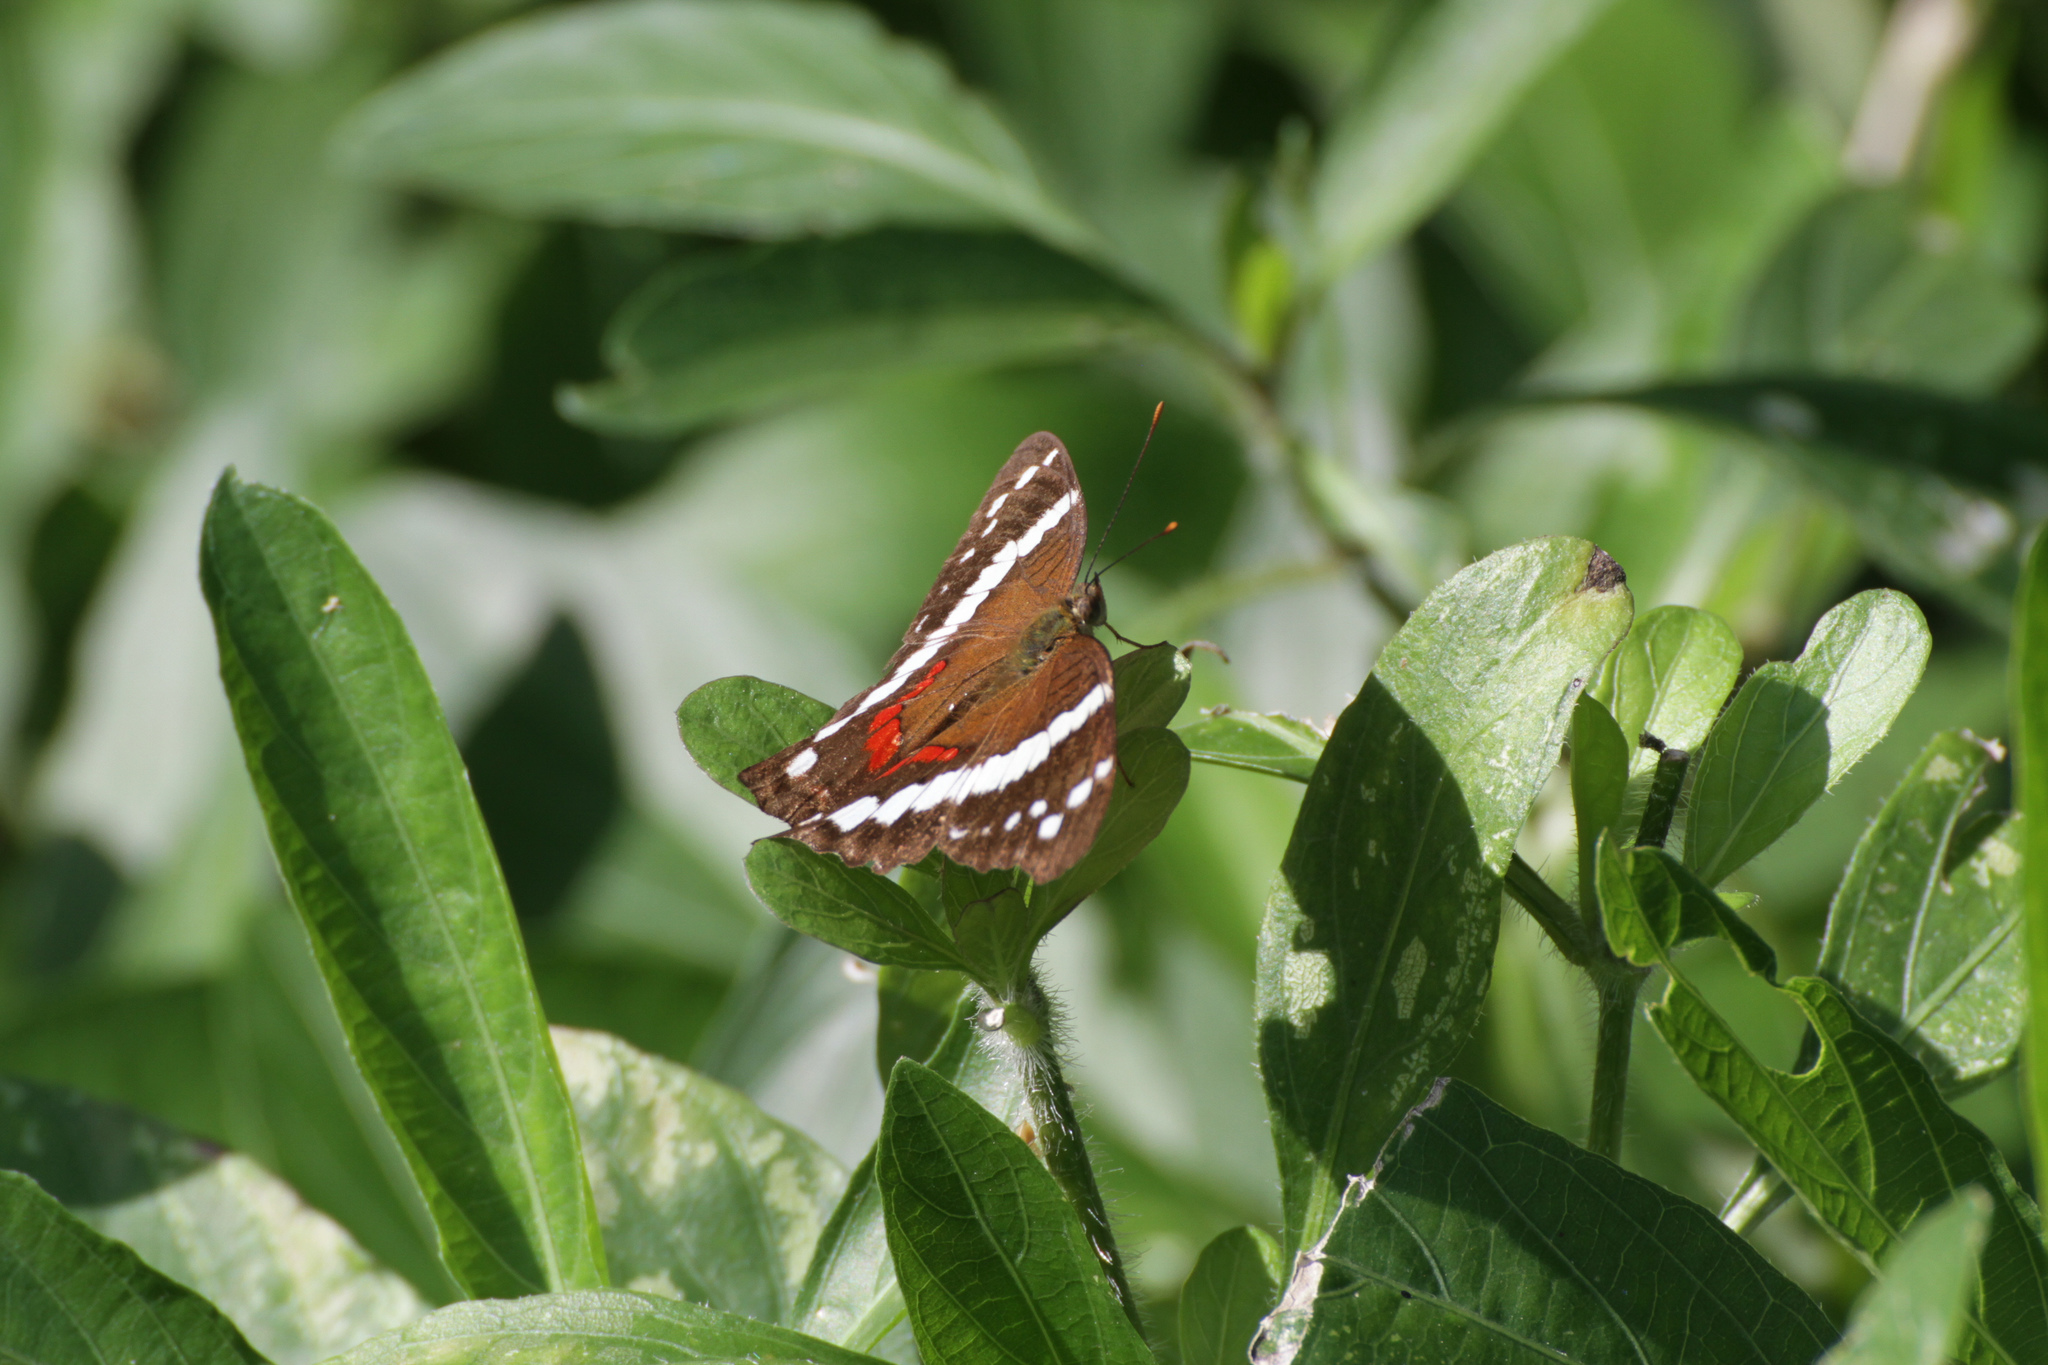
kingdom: Animalia
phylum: Arthropoda
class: Insecta
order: Lepidoptera
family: Nymphalidae
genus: Anartia
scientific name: Anartia fatima
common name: Banded peacock
